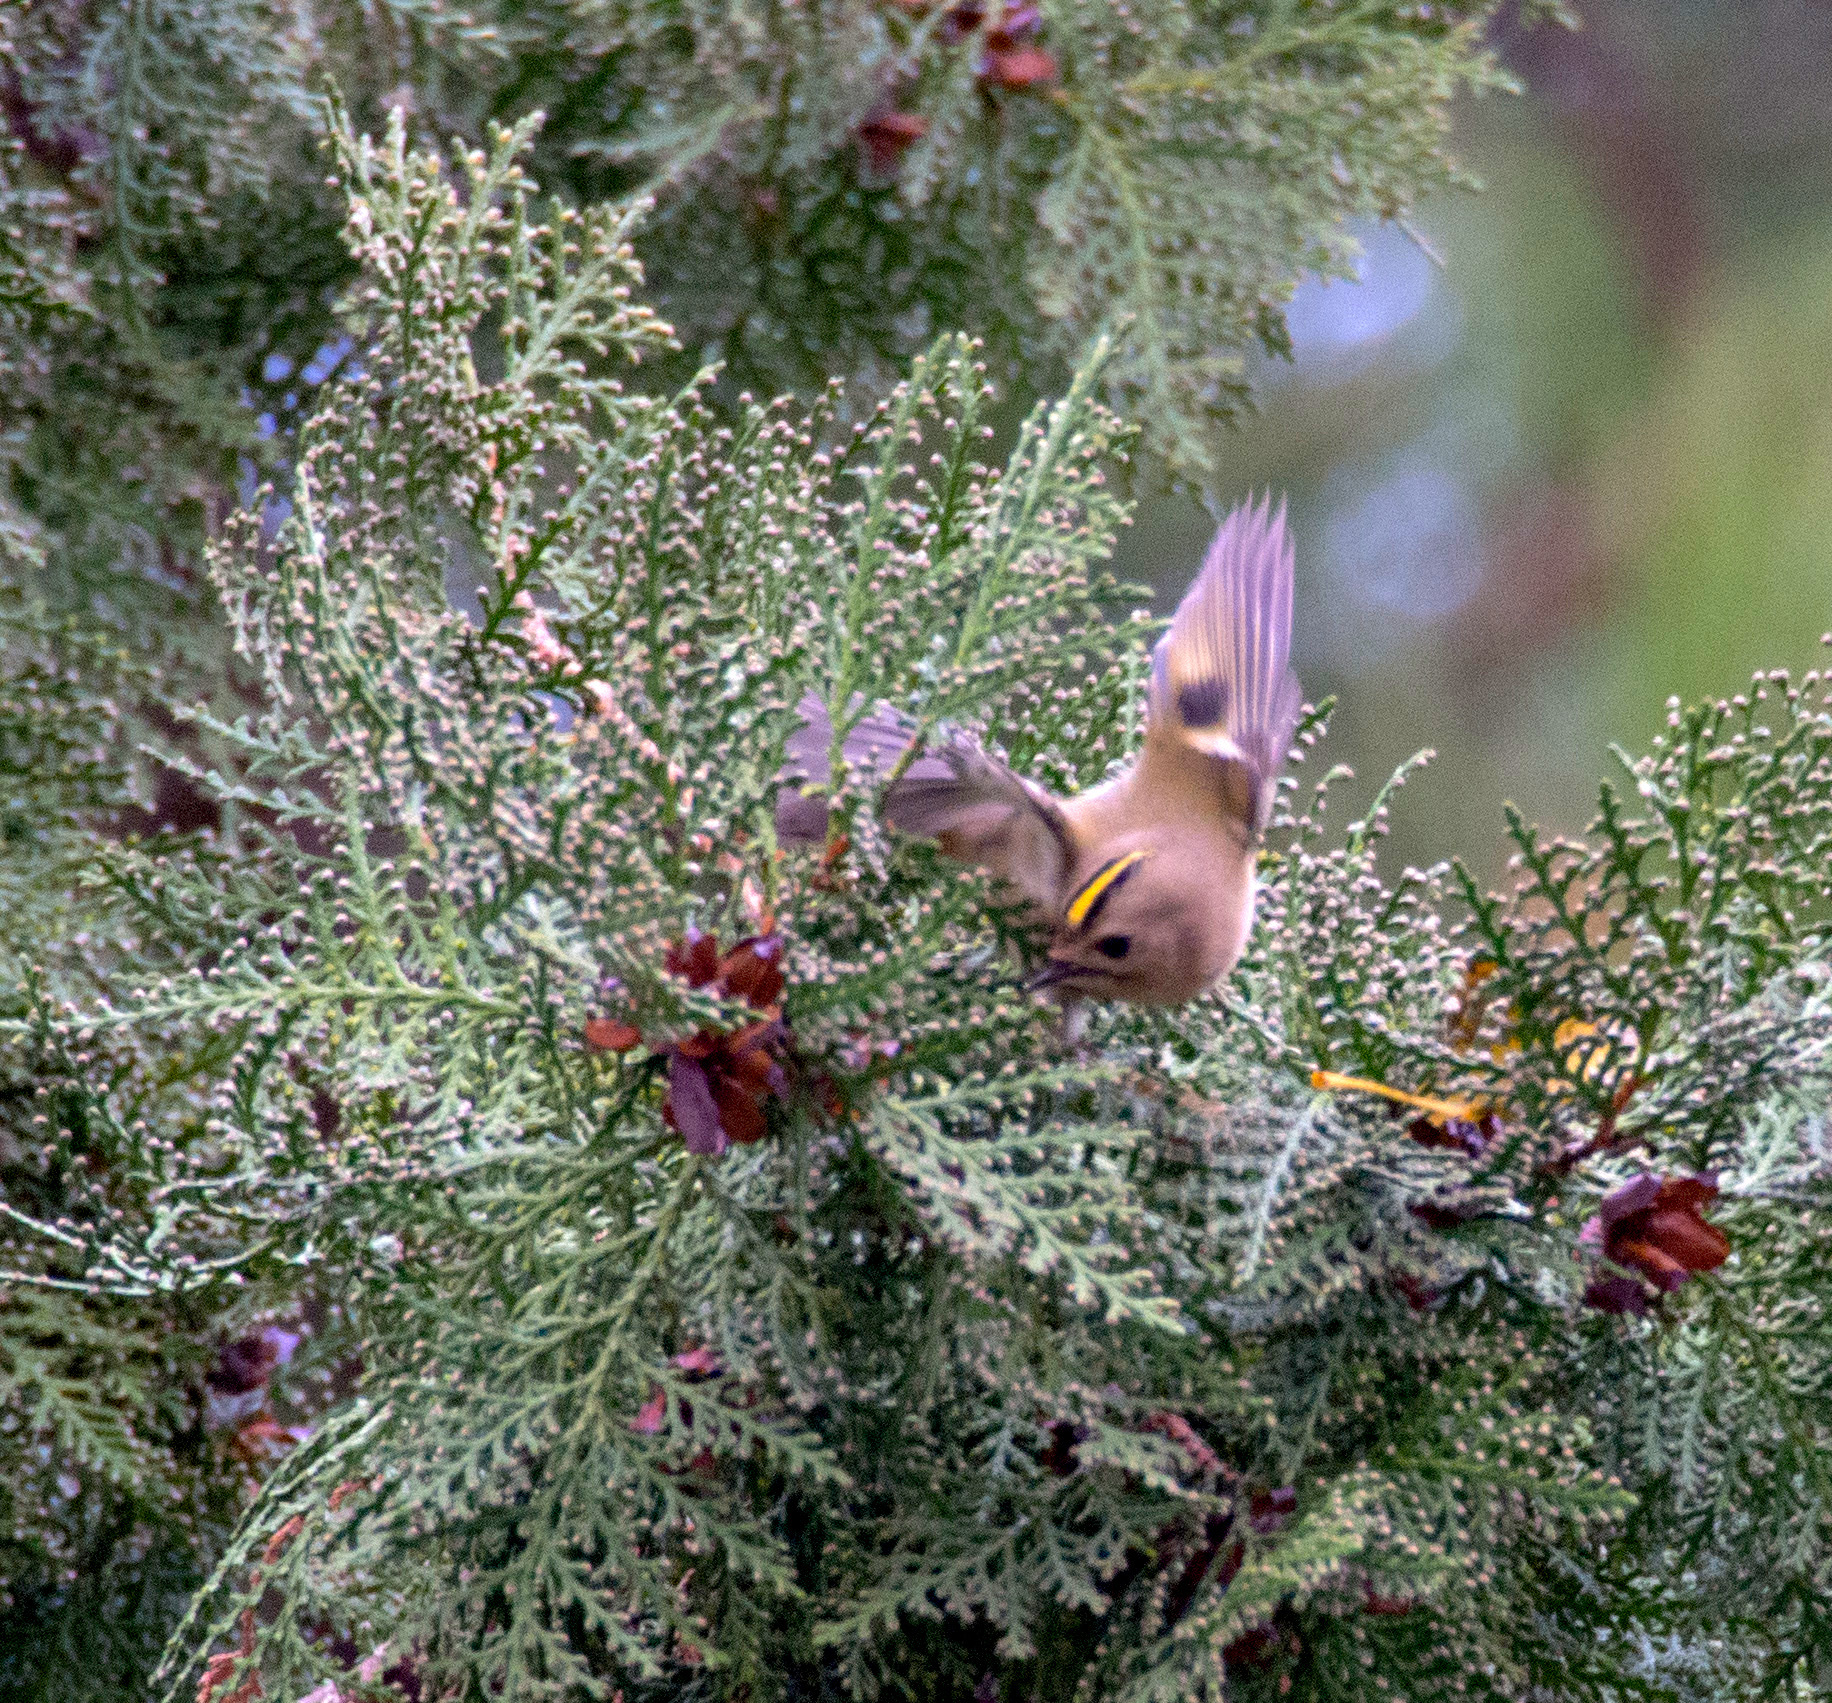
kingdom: Animalia
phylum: Chordata
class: Aves
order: Passeriformes
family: Regulidae
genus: Regulus
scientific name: Regulus regulus
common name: Goldcrest
